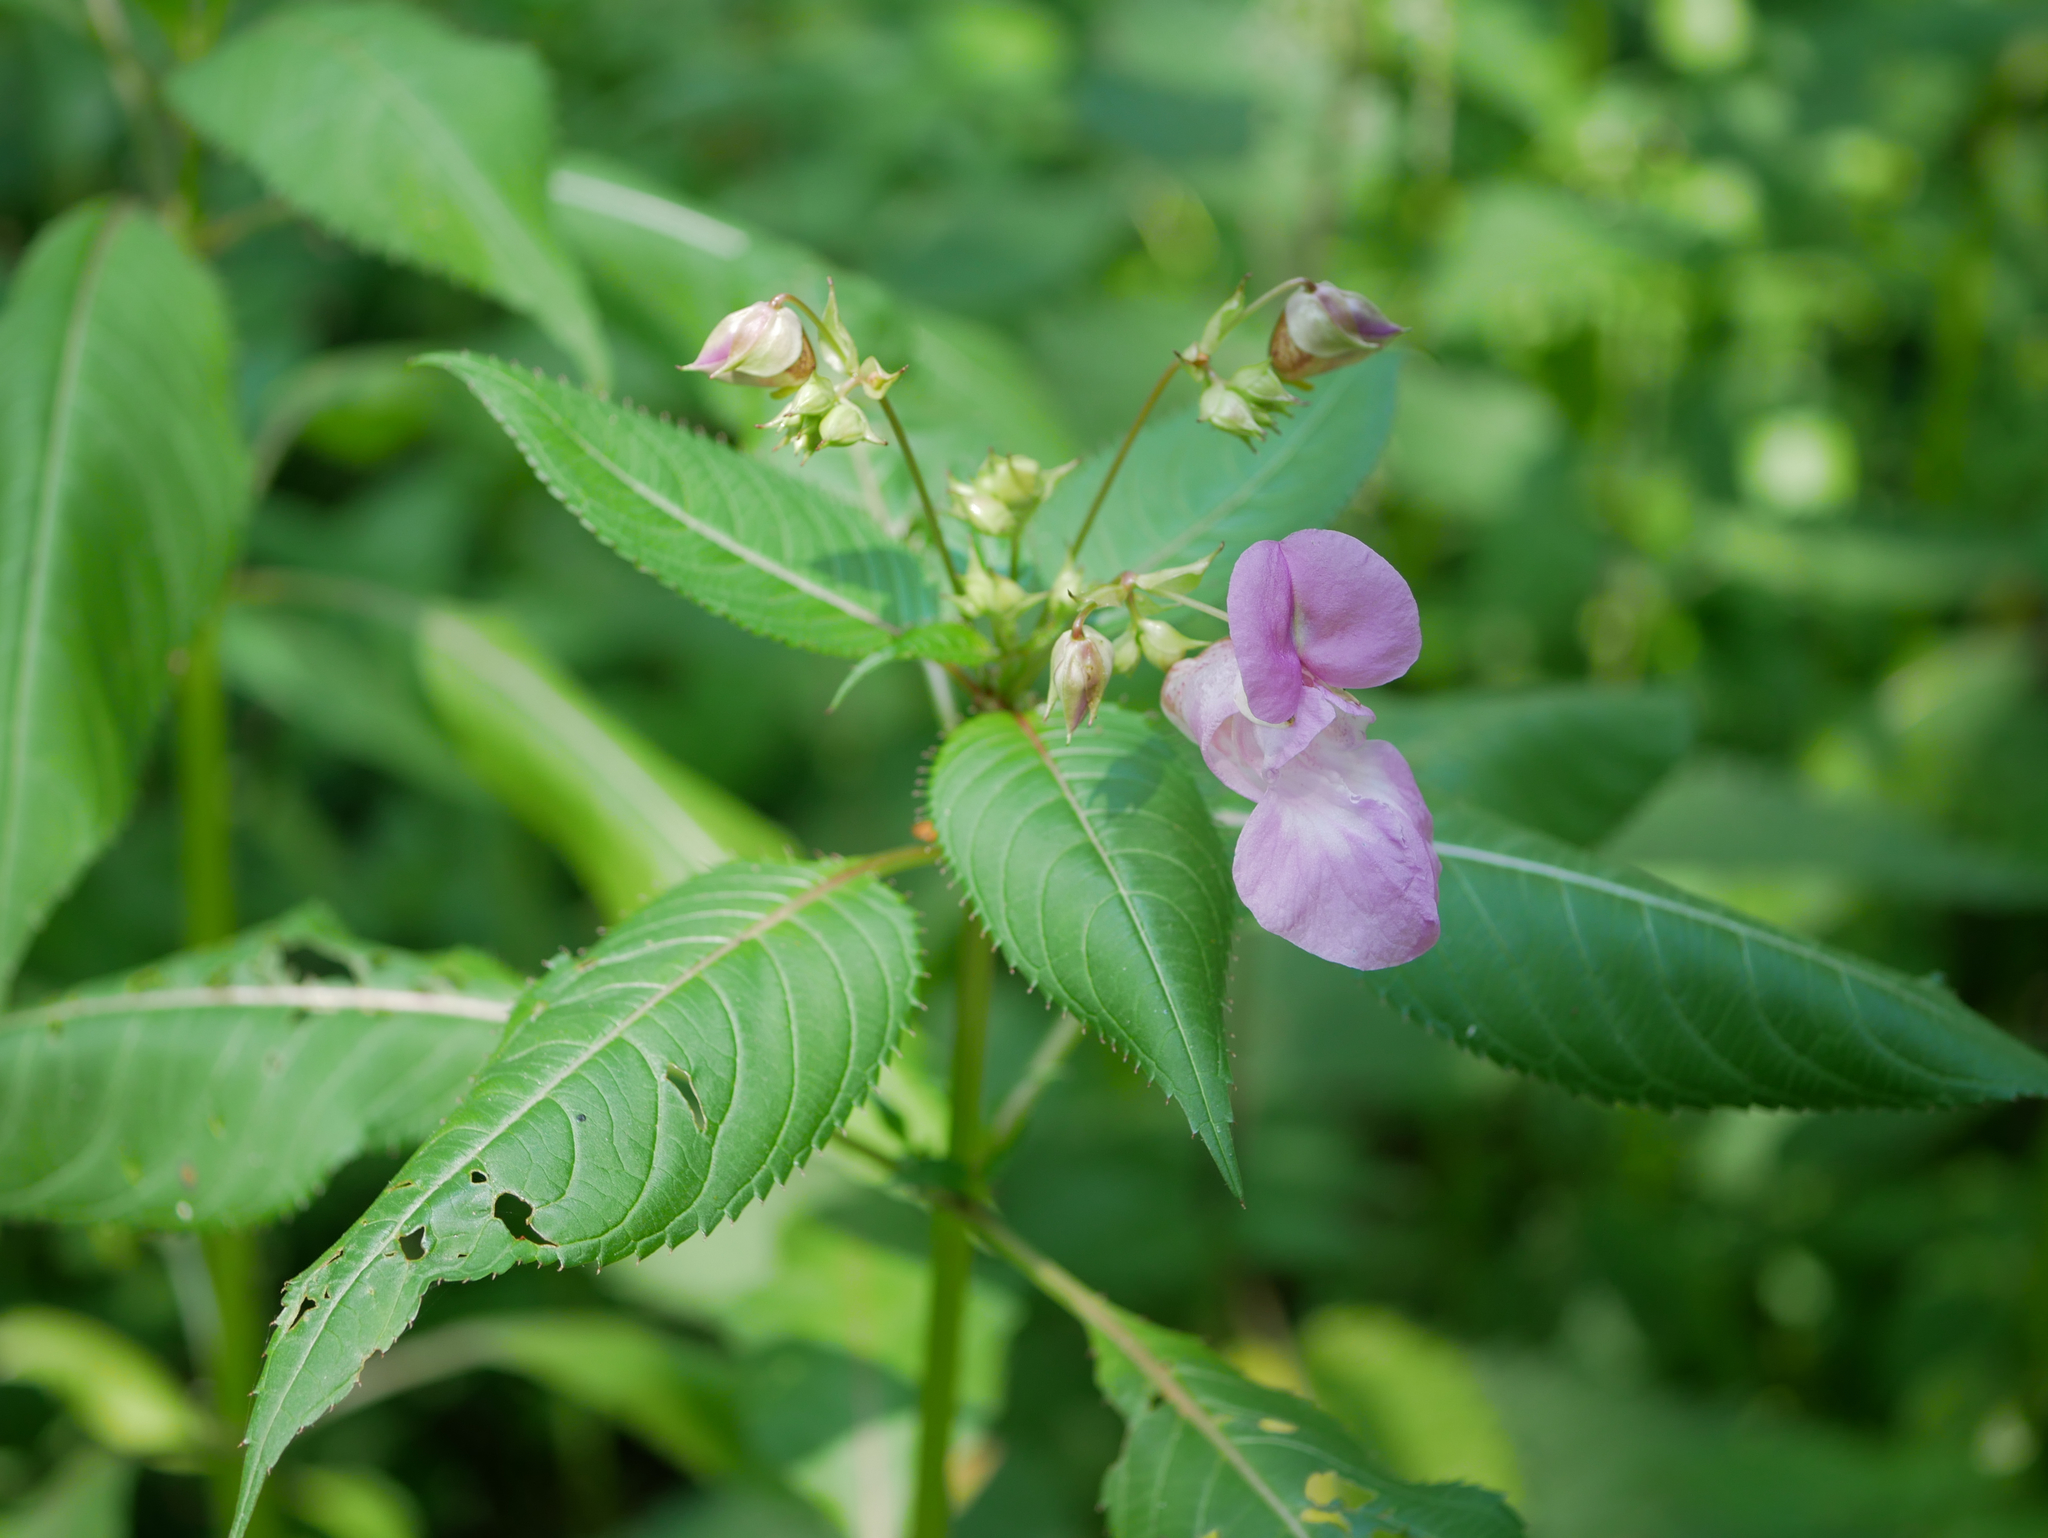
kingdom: Plantae
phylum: Tracheophyta
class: Magnoliopsida
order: Ericales
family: Balsaminaceae
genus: Impatiens
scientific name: Impatiens glandulifera
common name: Himalayan balsam
